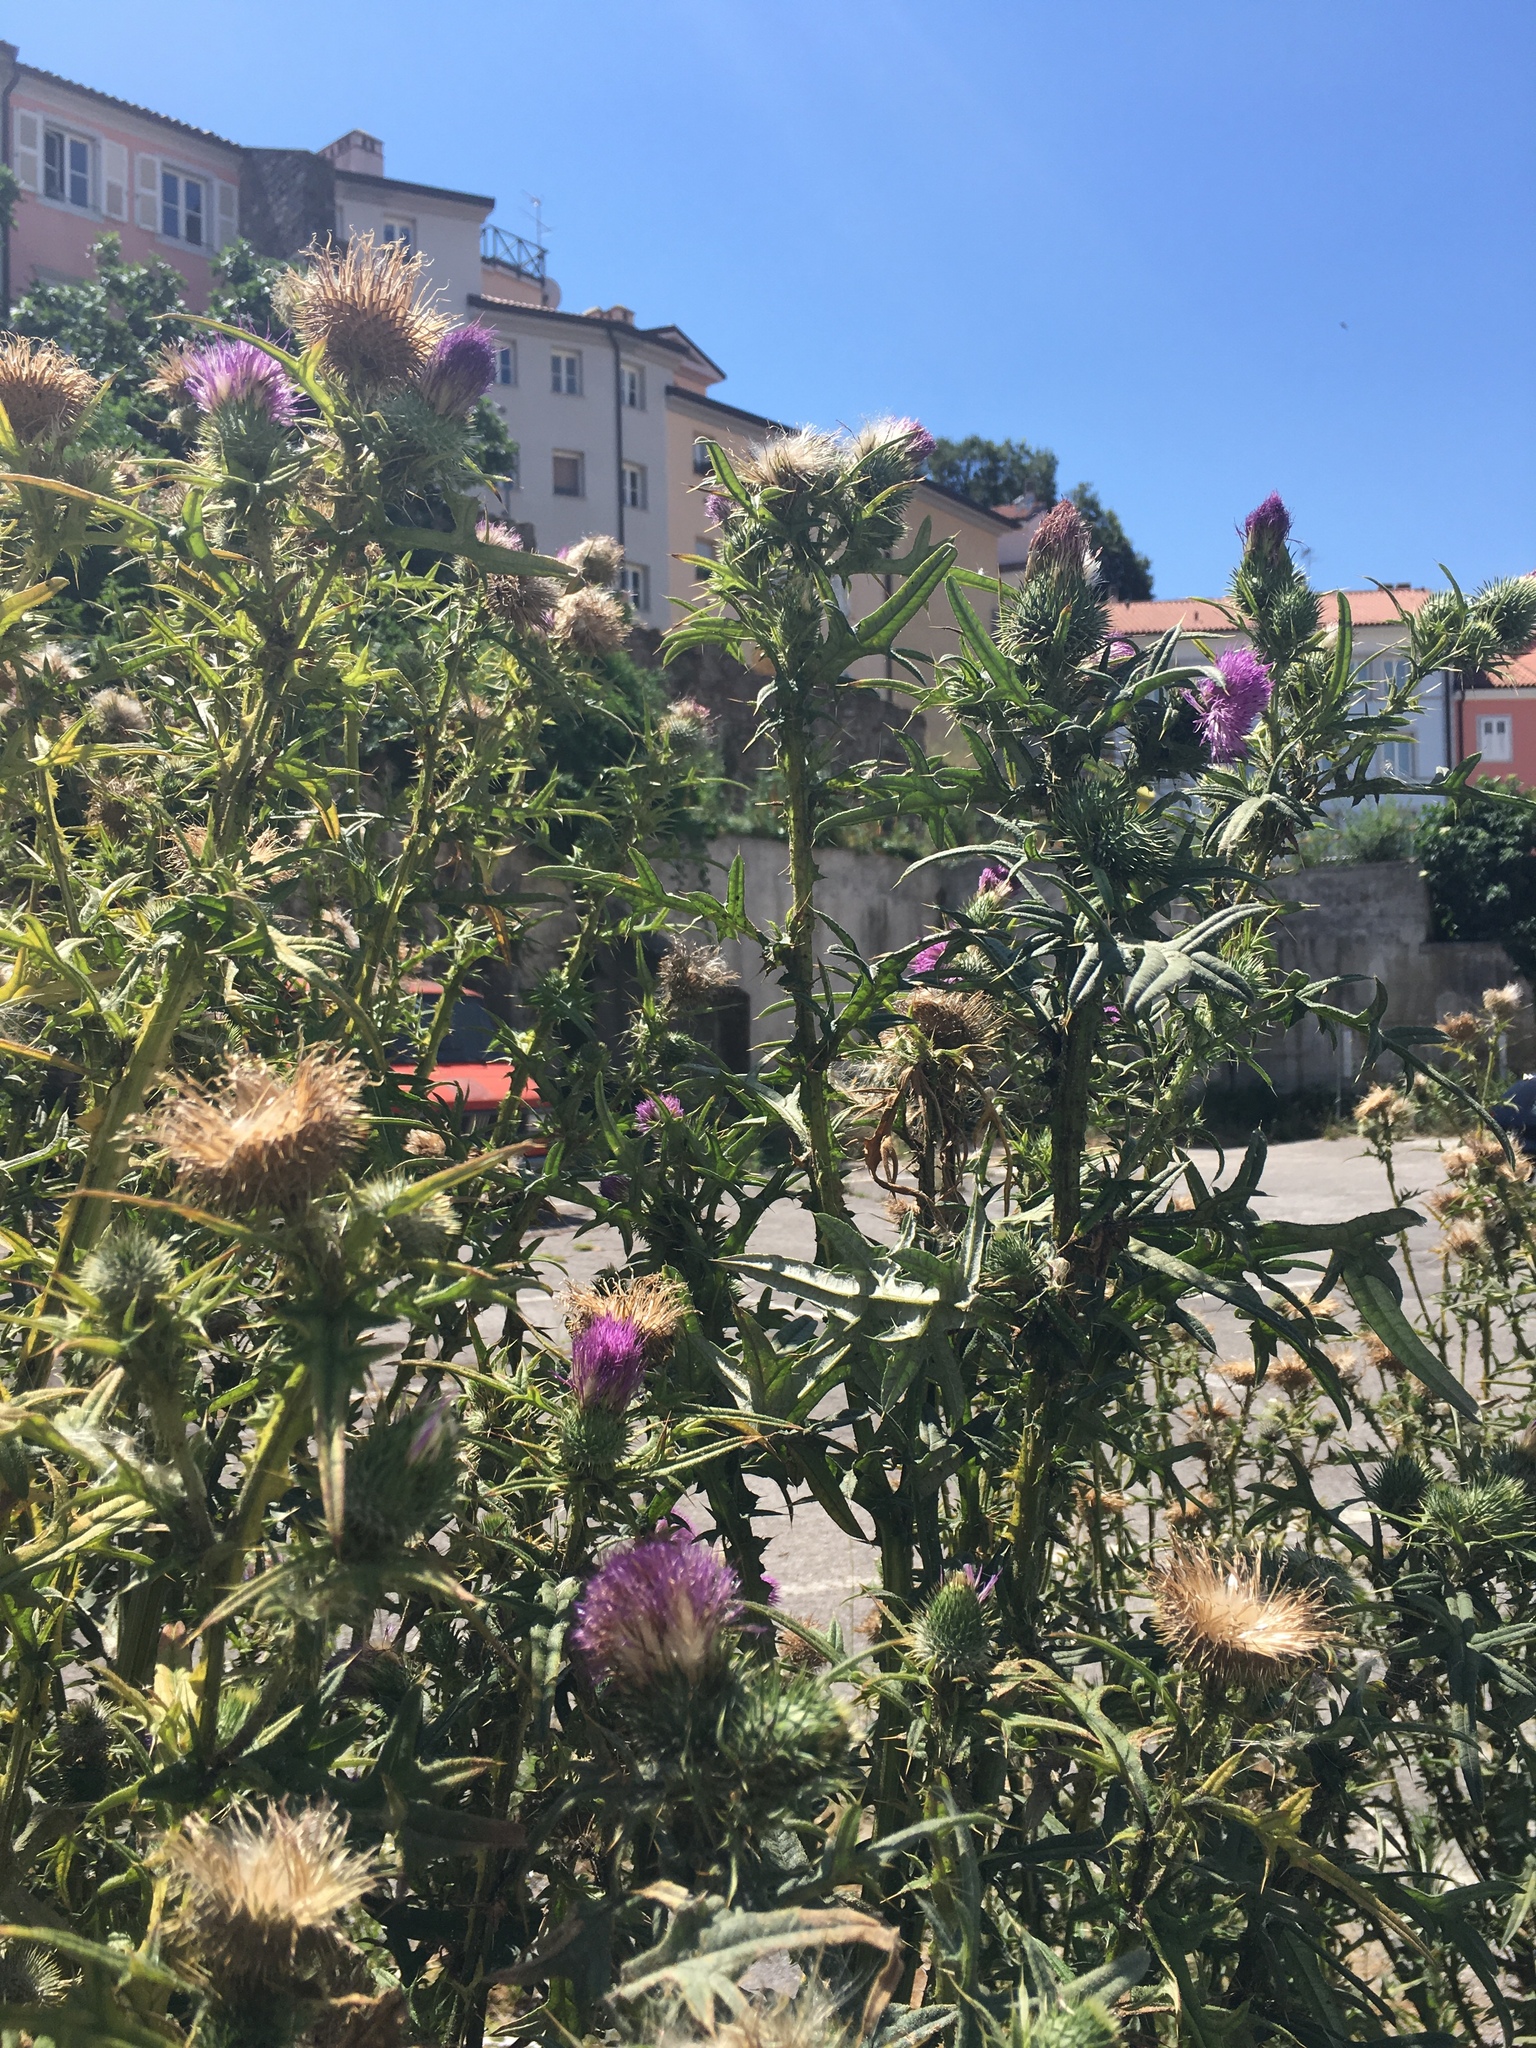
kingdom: Plantae
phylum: Tracheophyta
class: Magnoliopsida
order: Asterales
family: Asteraceae
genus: Cirsium
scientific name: Cirsium vulgare
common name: Bull thistle
